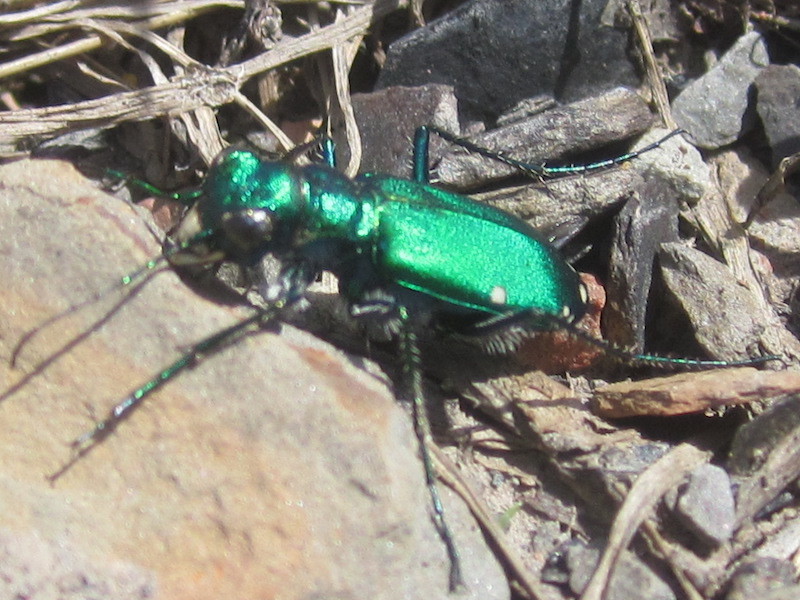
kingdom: Animalia
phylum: Arthropoda
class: Insecta
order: Coleoptera
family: Carabidae
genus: Cicindela
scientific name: Cicindela sexguttata
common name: Six-spotted tiger beetle
